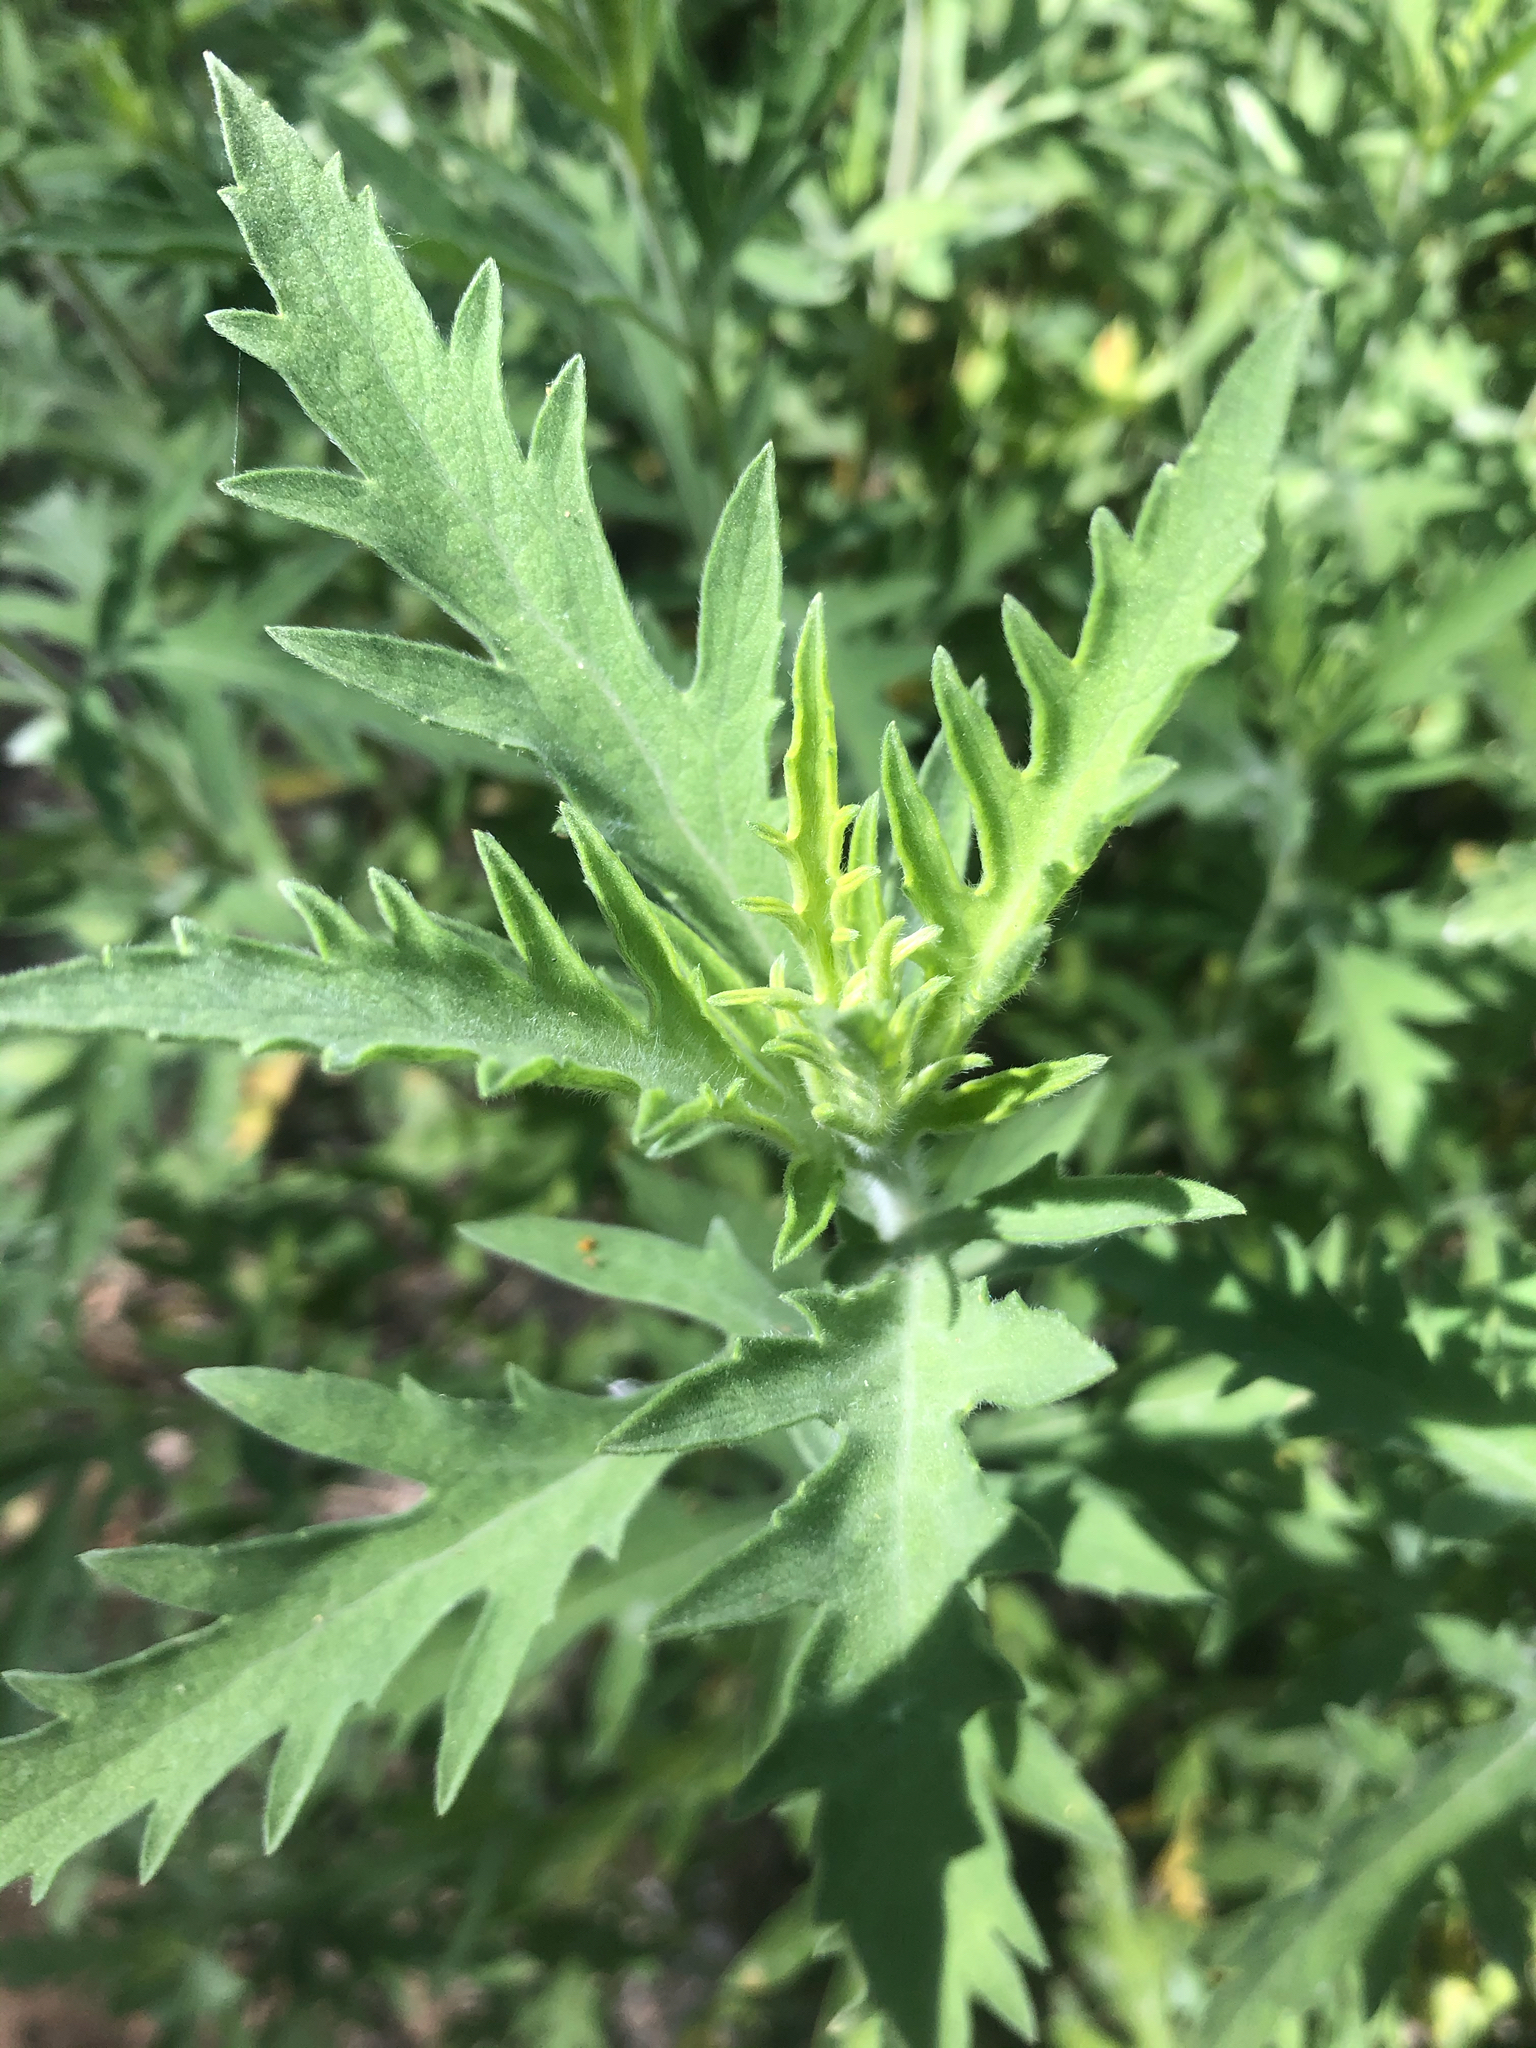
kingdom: Plantae
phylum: Tracheophyta
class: Magnoliopsida
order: Asterales
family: Asteraceae
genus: Ambrosia
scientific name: Ambrosia psilostachya
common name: Perennial ragweed
